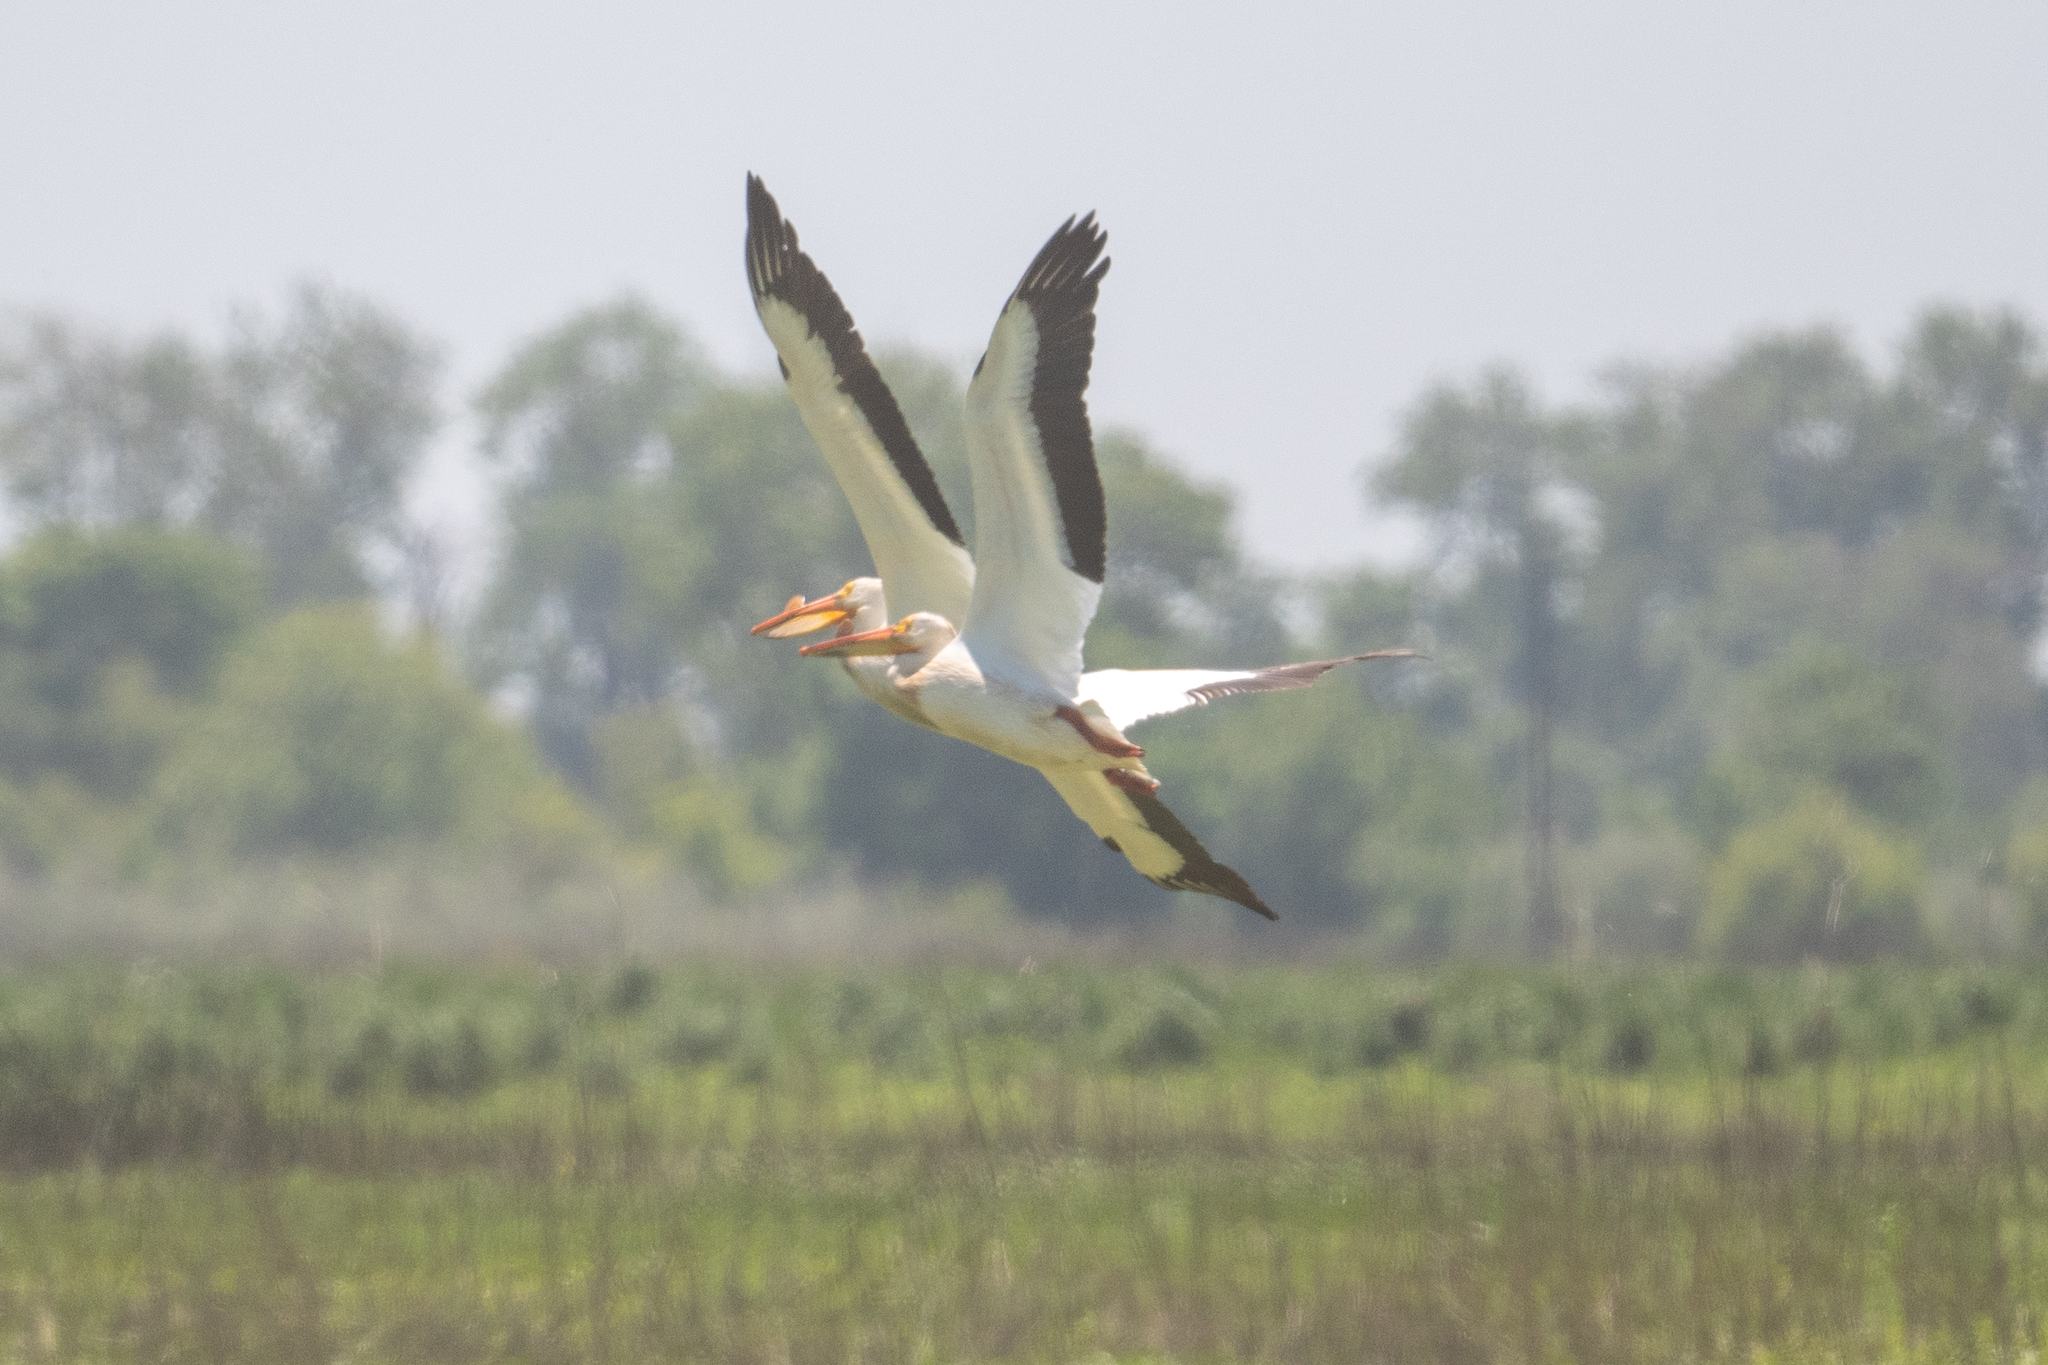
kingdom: Animalia
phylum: Chordata
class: Aves
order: Pelecaniformes
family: Pelecanidae
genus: Pelecanus
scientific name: Pelecanus erythrorhynchos
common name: American white pelican
